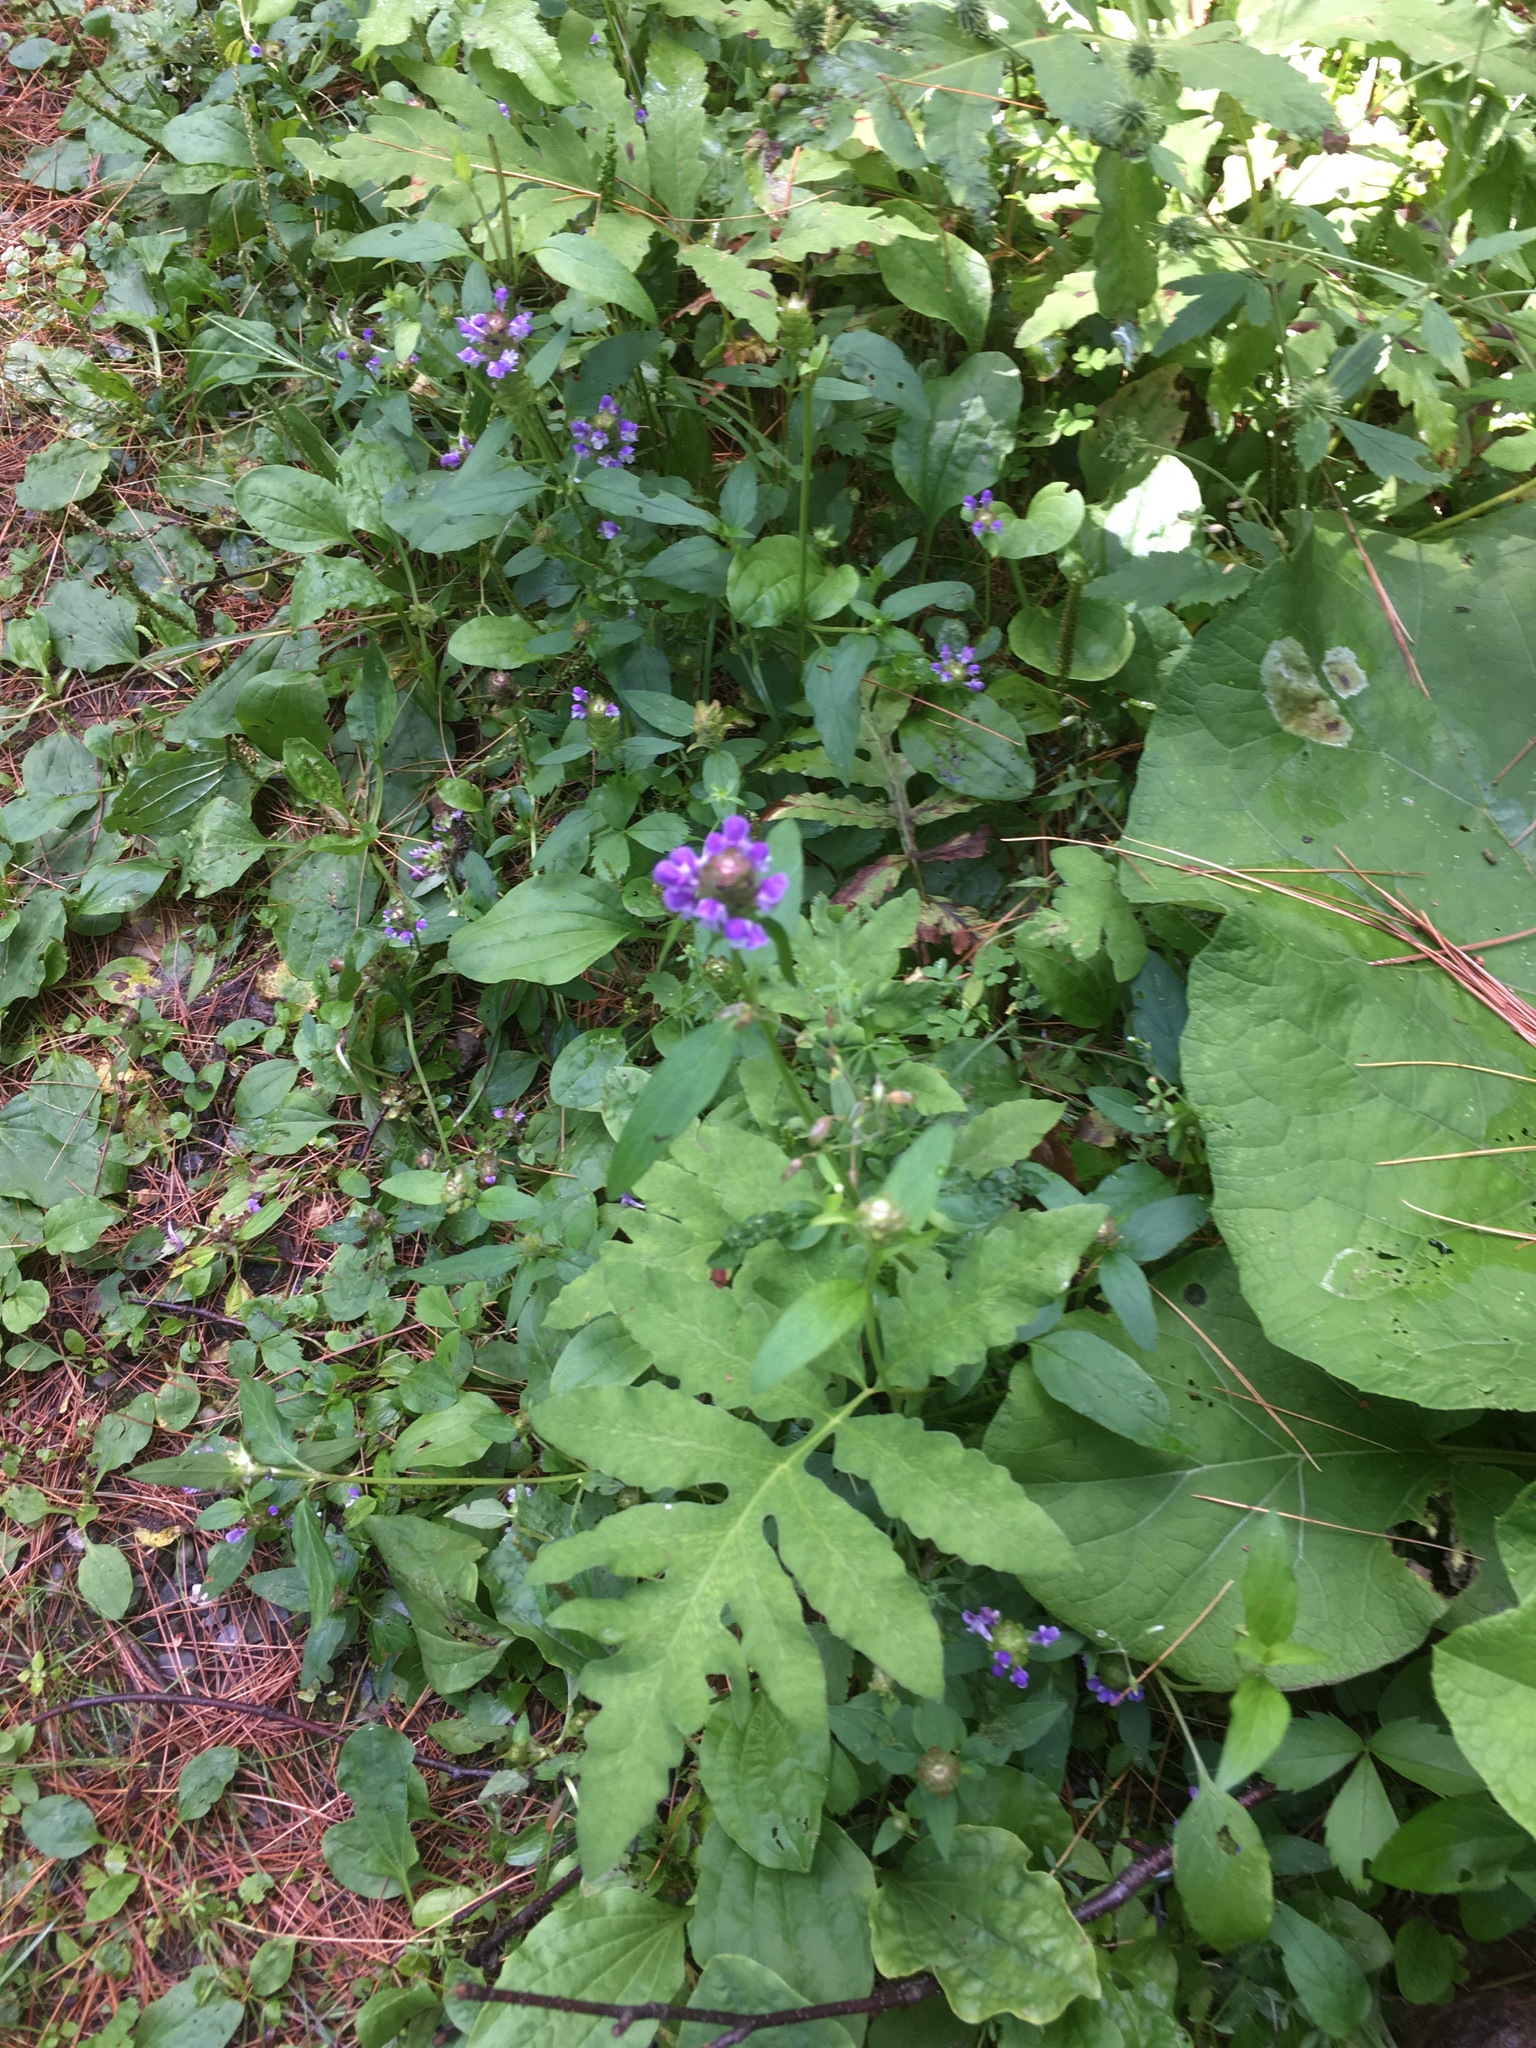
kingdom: Plantae
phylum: Tracheophyta
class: Magnoliopsida
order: Lamiales
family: Lamiaceae
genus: Prunella
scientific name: Prunella vulgaris
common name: Heal-all
